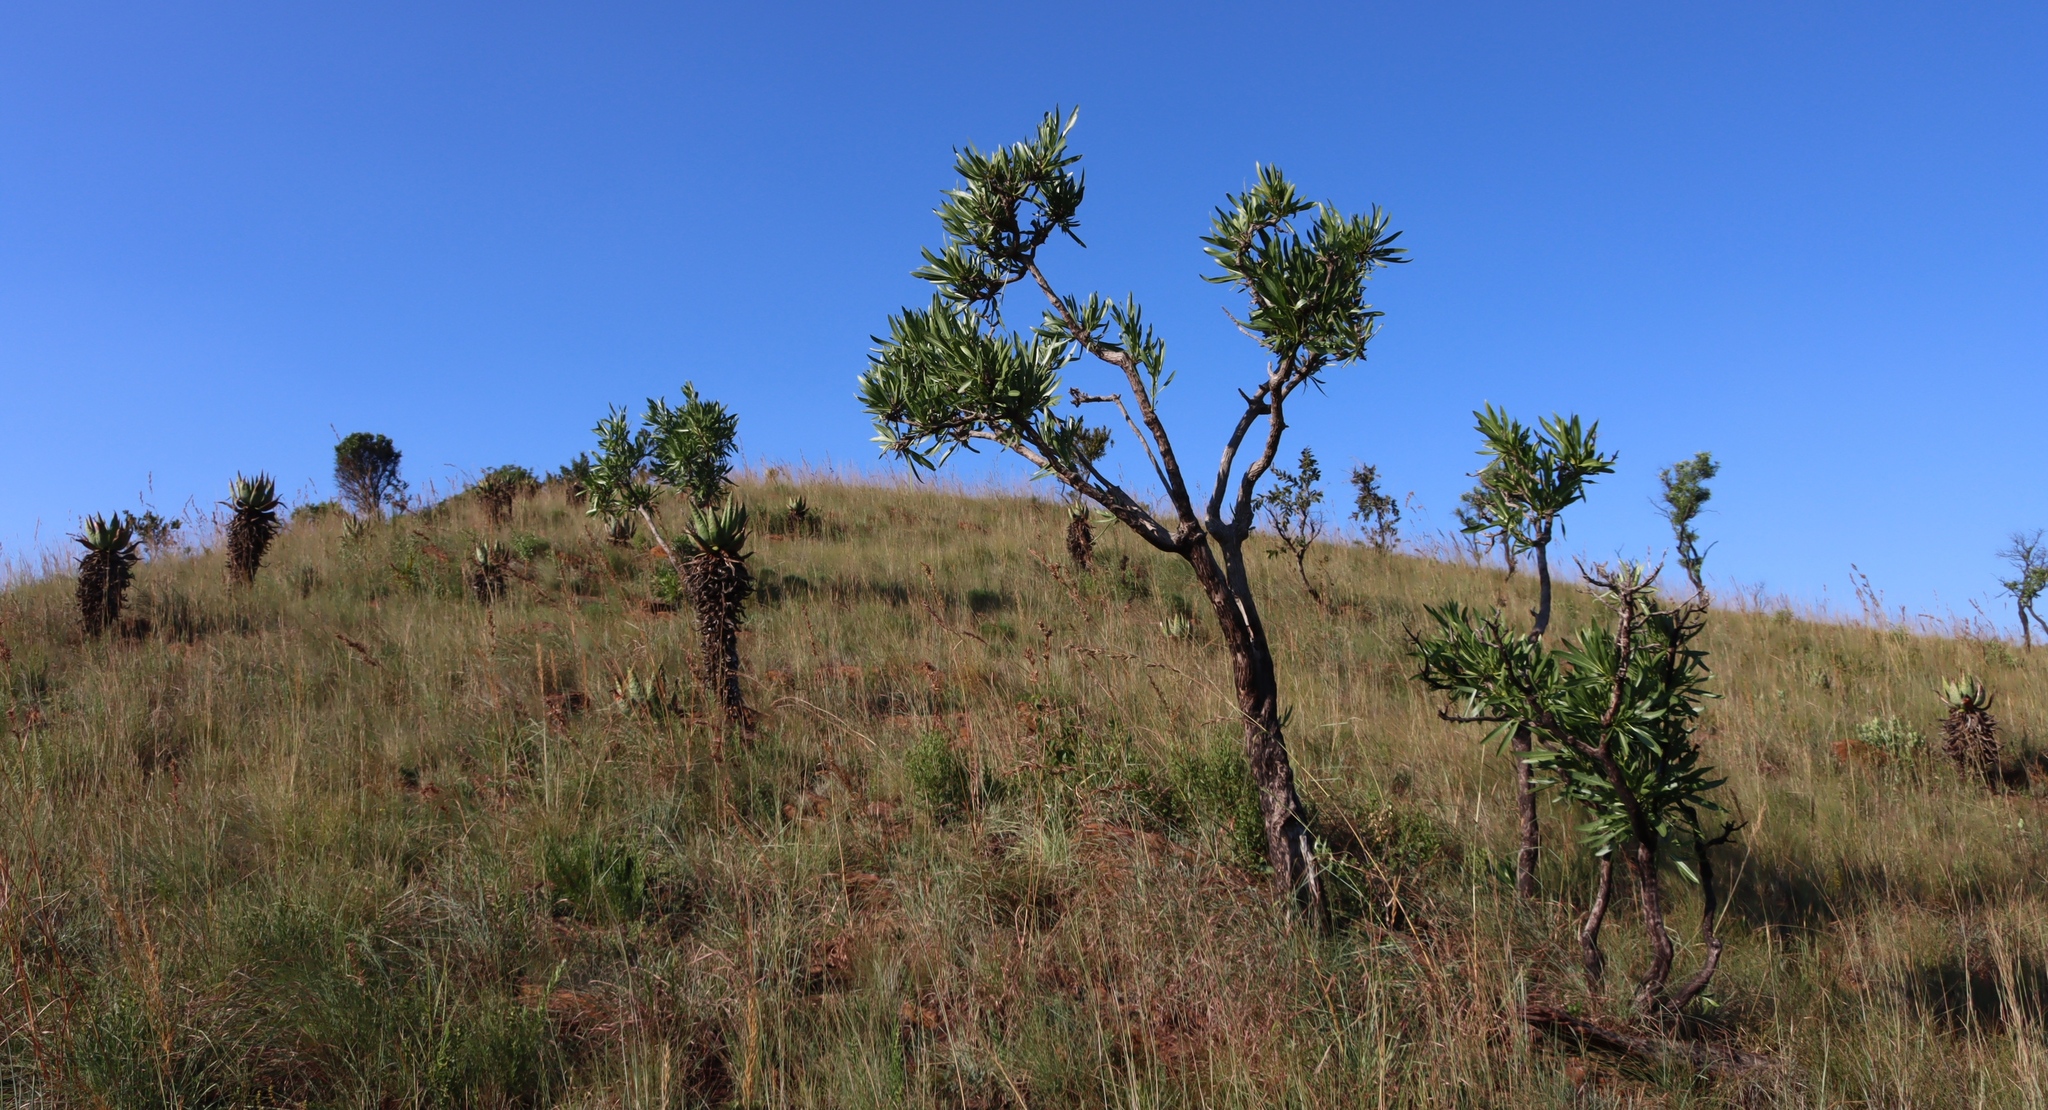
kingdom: Plantae
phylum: Tracheophyta
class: Liliopsida
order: Asparagales
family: Asphodelaceae
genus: Aloe
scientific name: Aloe marlothii
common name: Flat-flowered aloe
